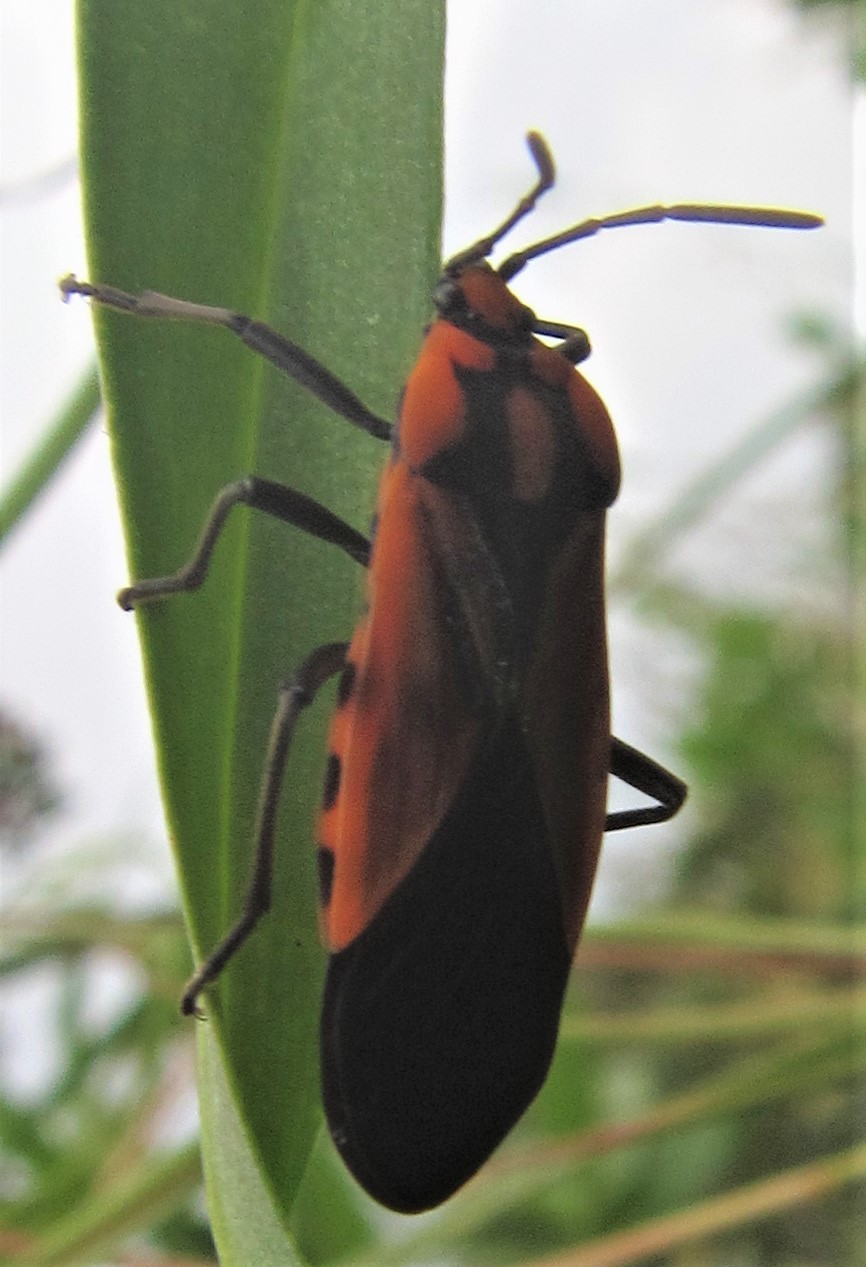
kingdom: Animalia
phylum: Arthropoda
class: Insecta
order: Hemiptera
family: Lygaeidae
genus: Stalagmostethus
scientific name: Stalagmostethus fuscatus
